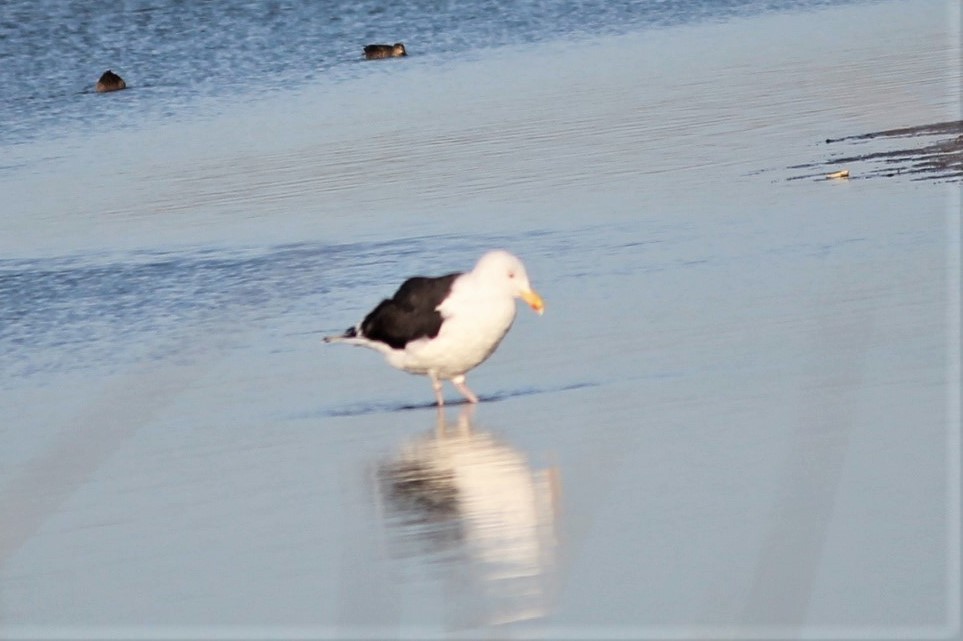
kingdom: Animalia
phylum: Chordata
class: Aves
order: Charadriiformes
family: Laridae
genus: Larus
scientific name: Larus marinus
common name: Great black-backed gull
